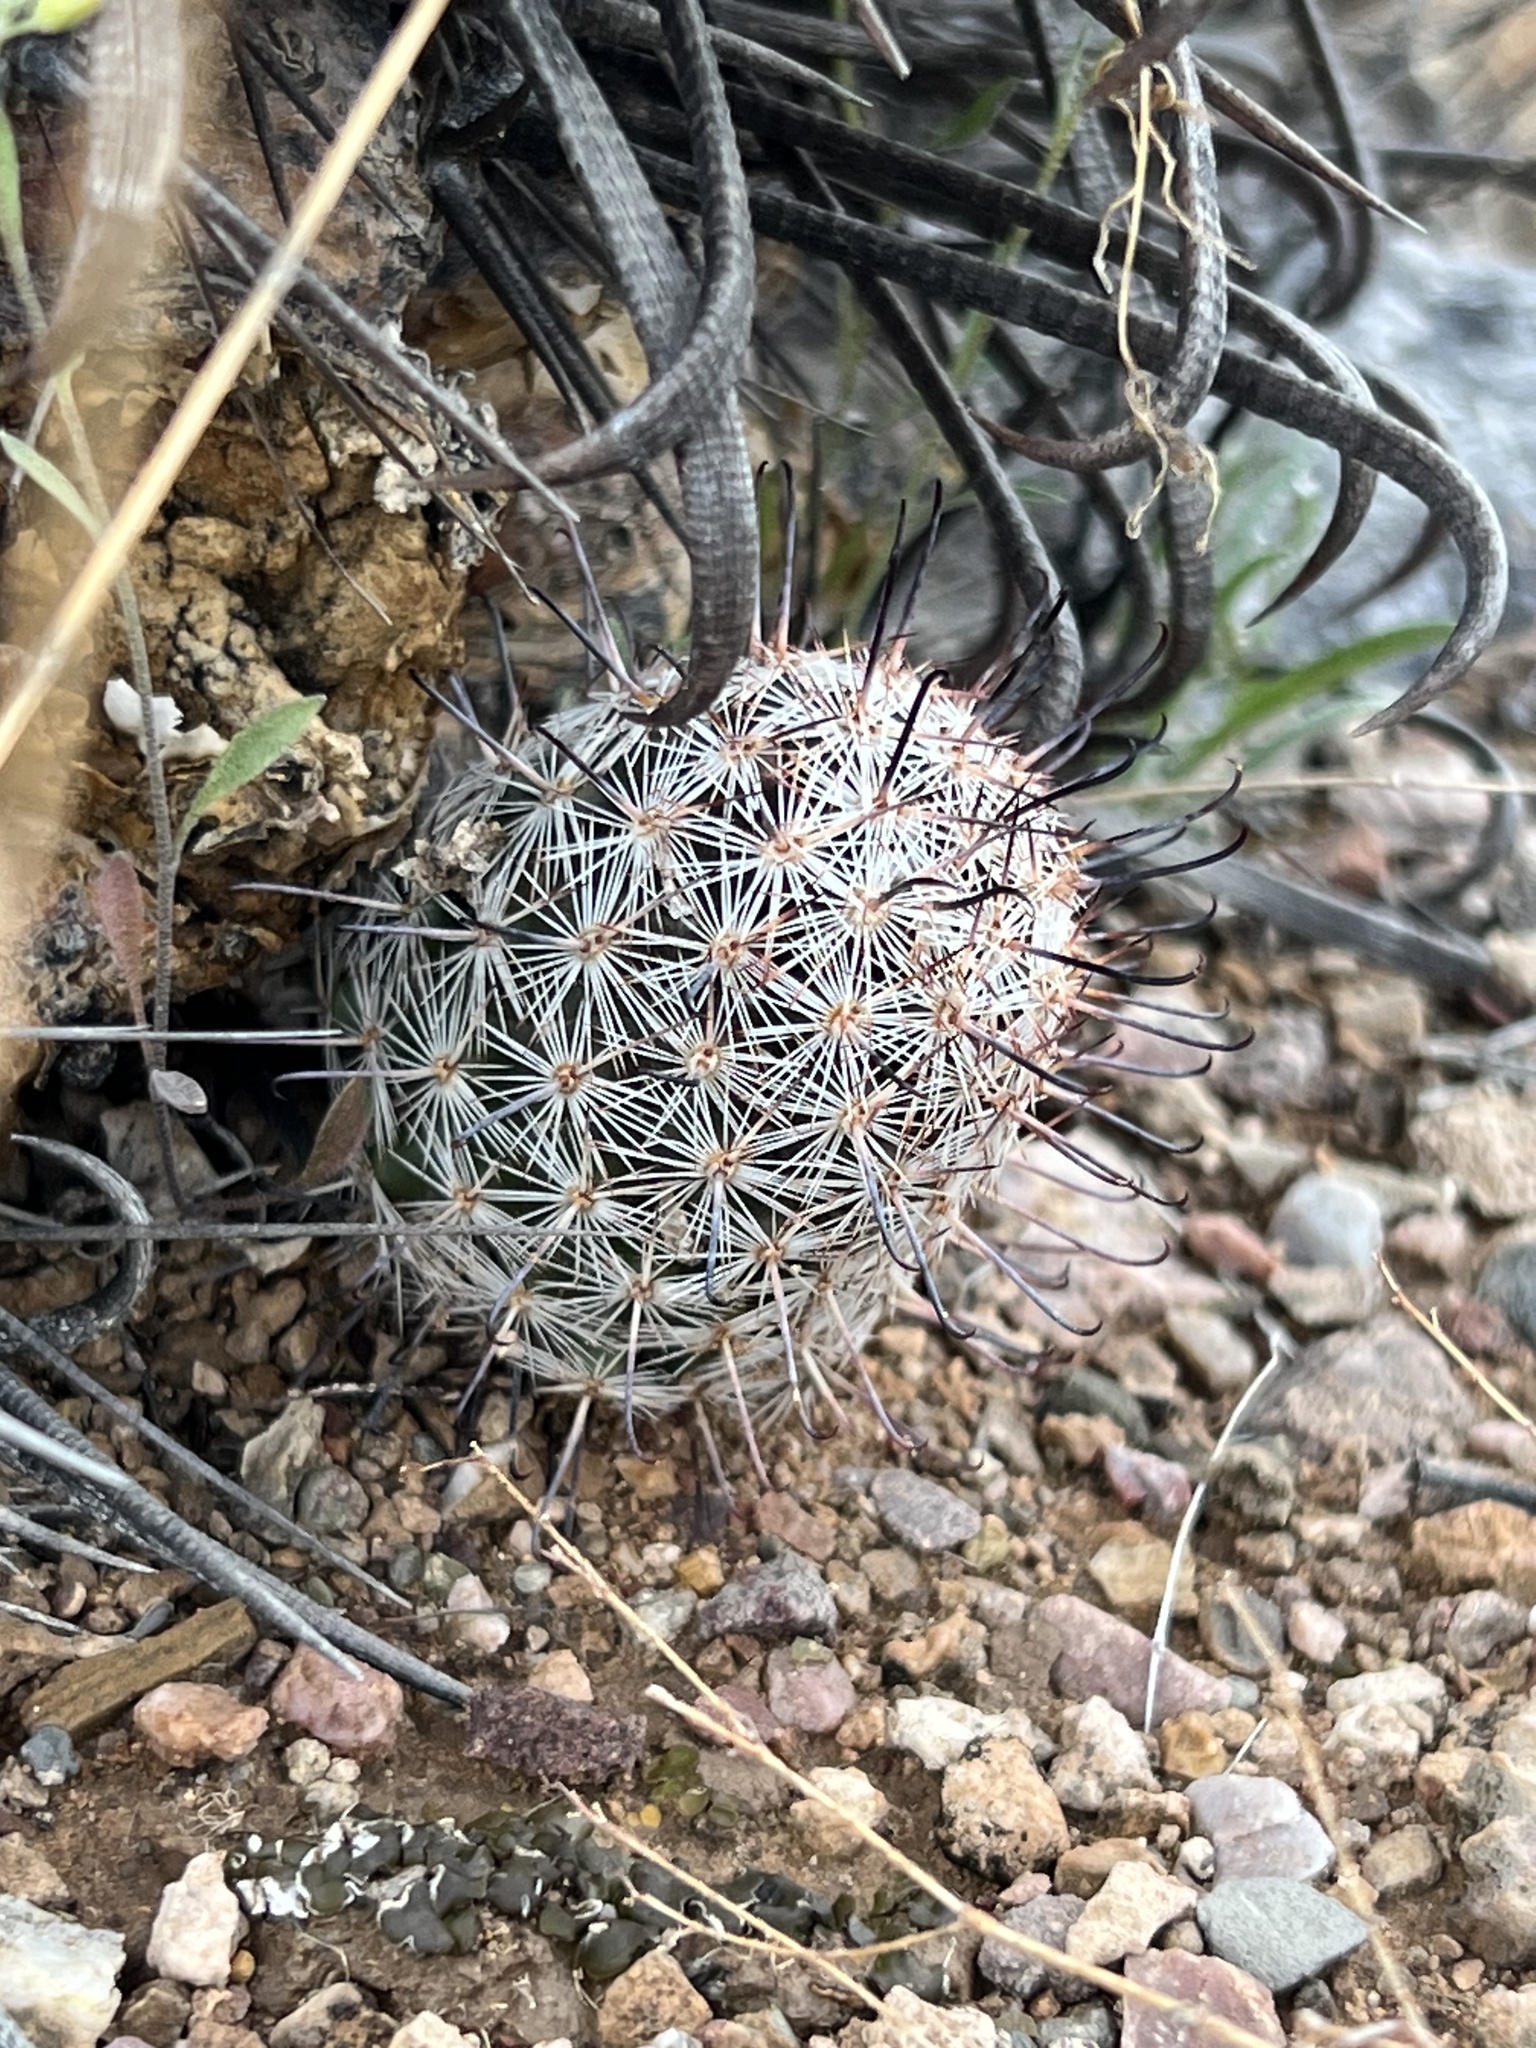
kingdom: Plantae
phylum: Tracheophyta
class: Magnoliopsida
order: Caryophyllales
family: Cactaceae
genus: Cochemiea
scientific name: Cochemiea grahamii
